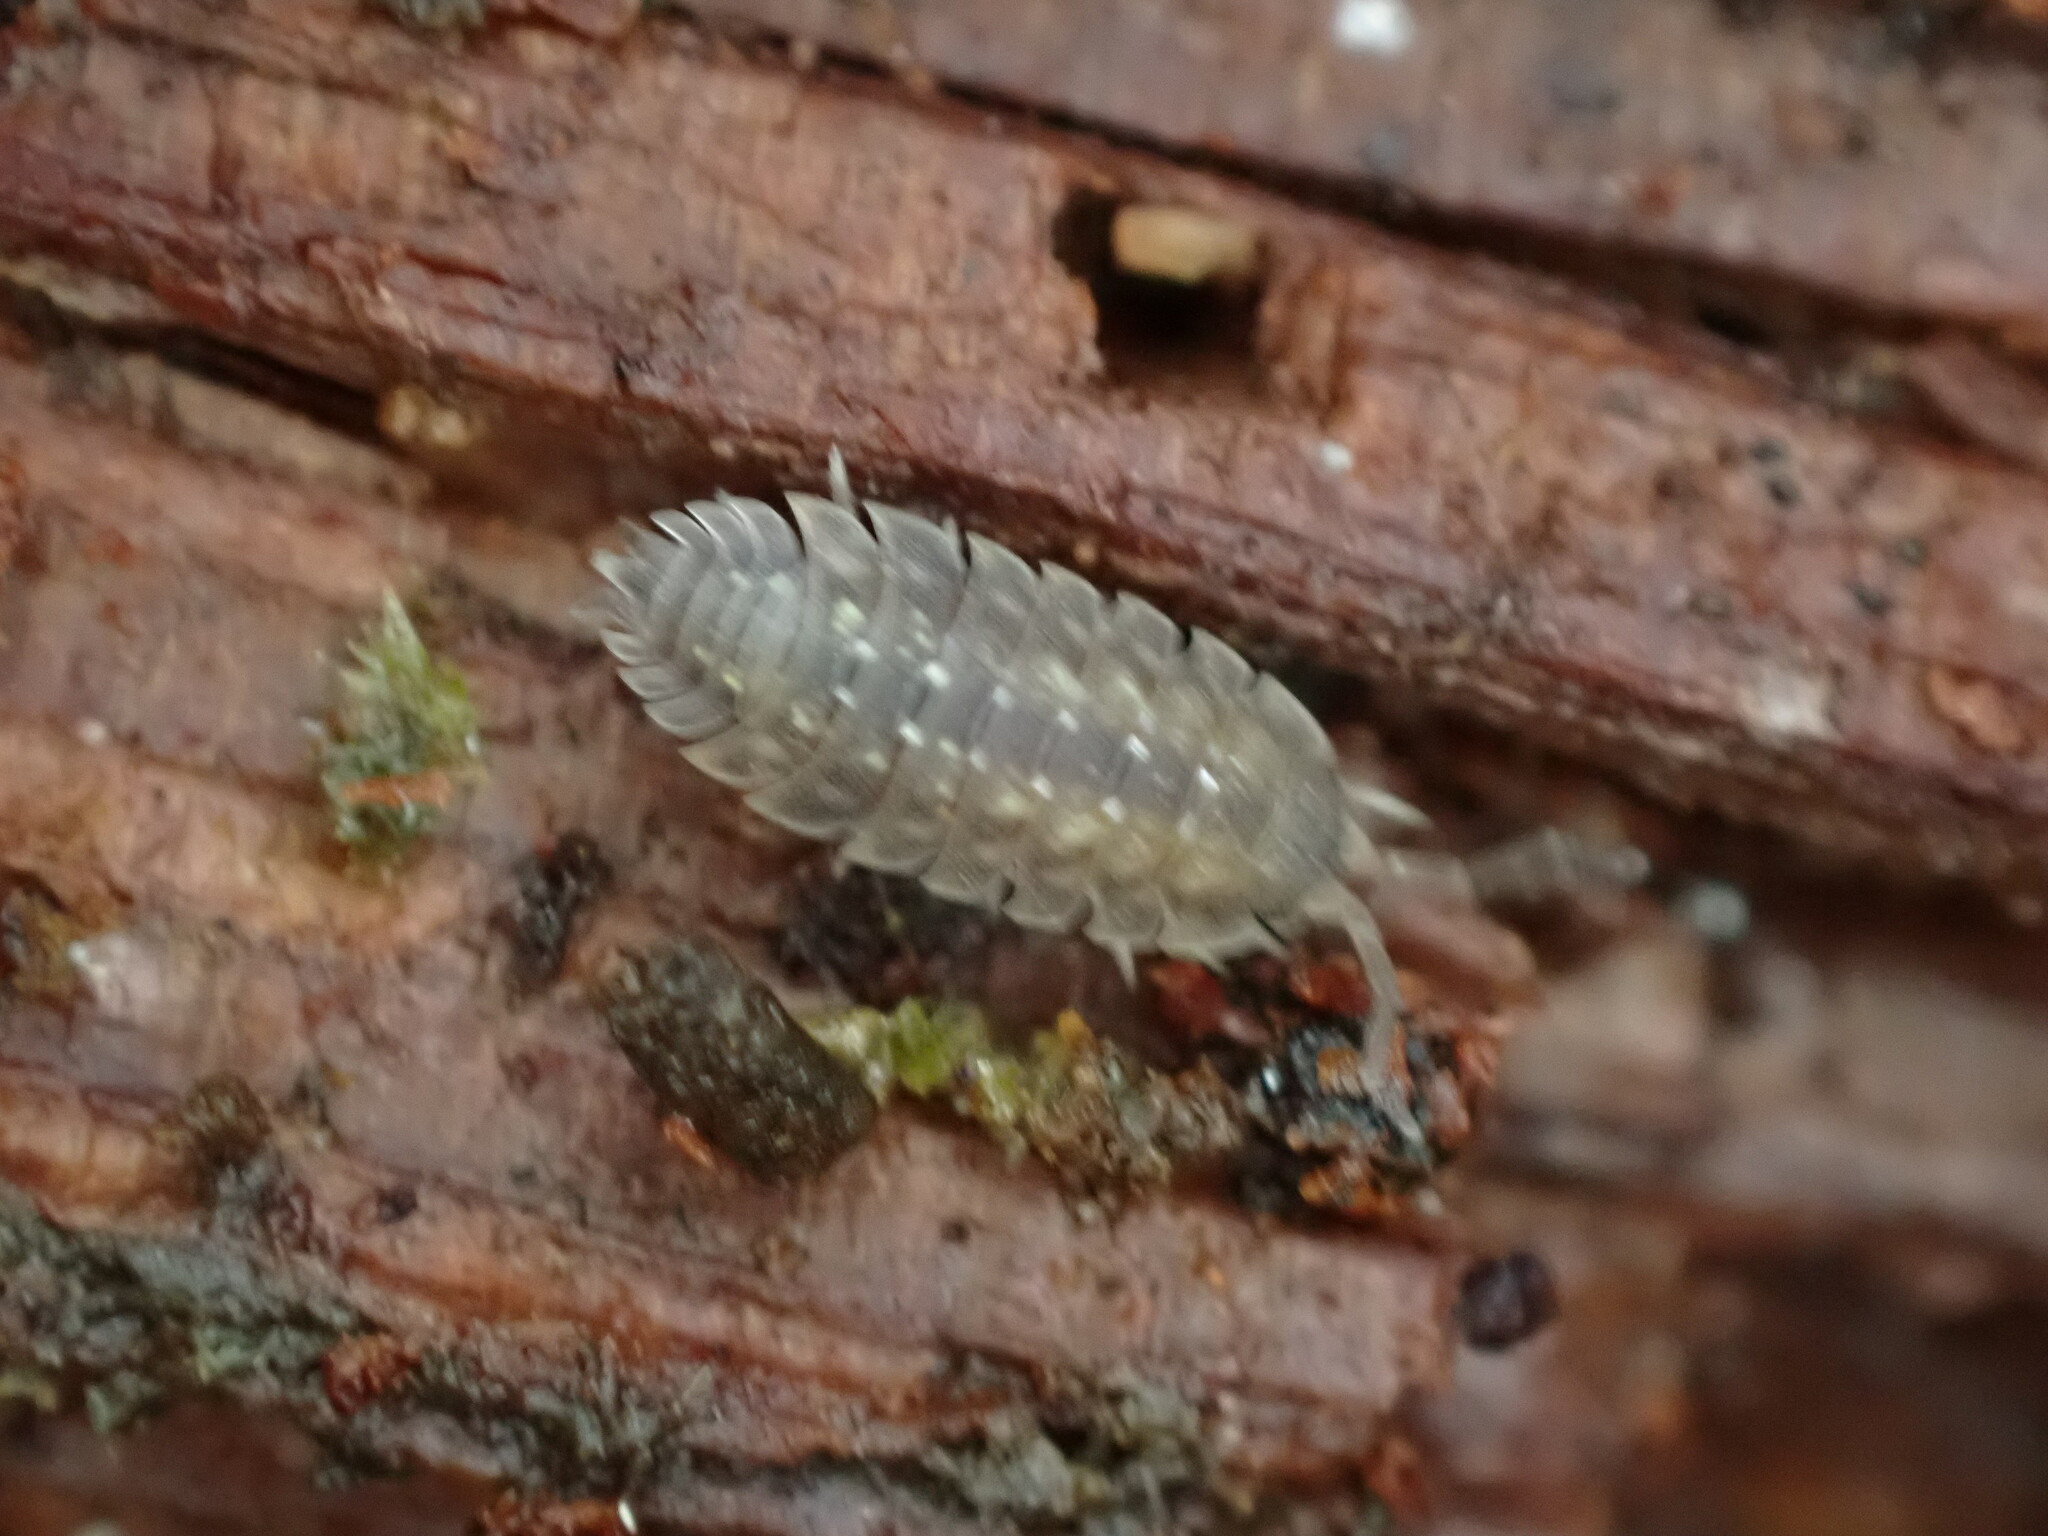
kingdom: Animalia
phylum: Arthropoda
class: Malacostraca
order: Isopoda
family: Oniscidae
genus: Oniscus
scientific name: Oniscus asellus
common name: Common shiny woodlouse
